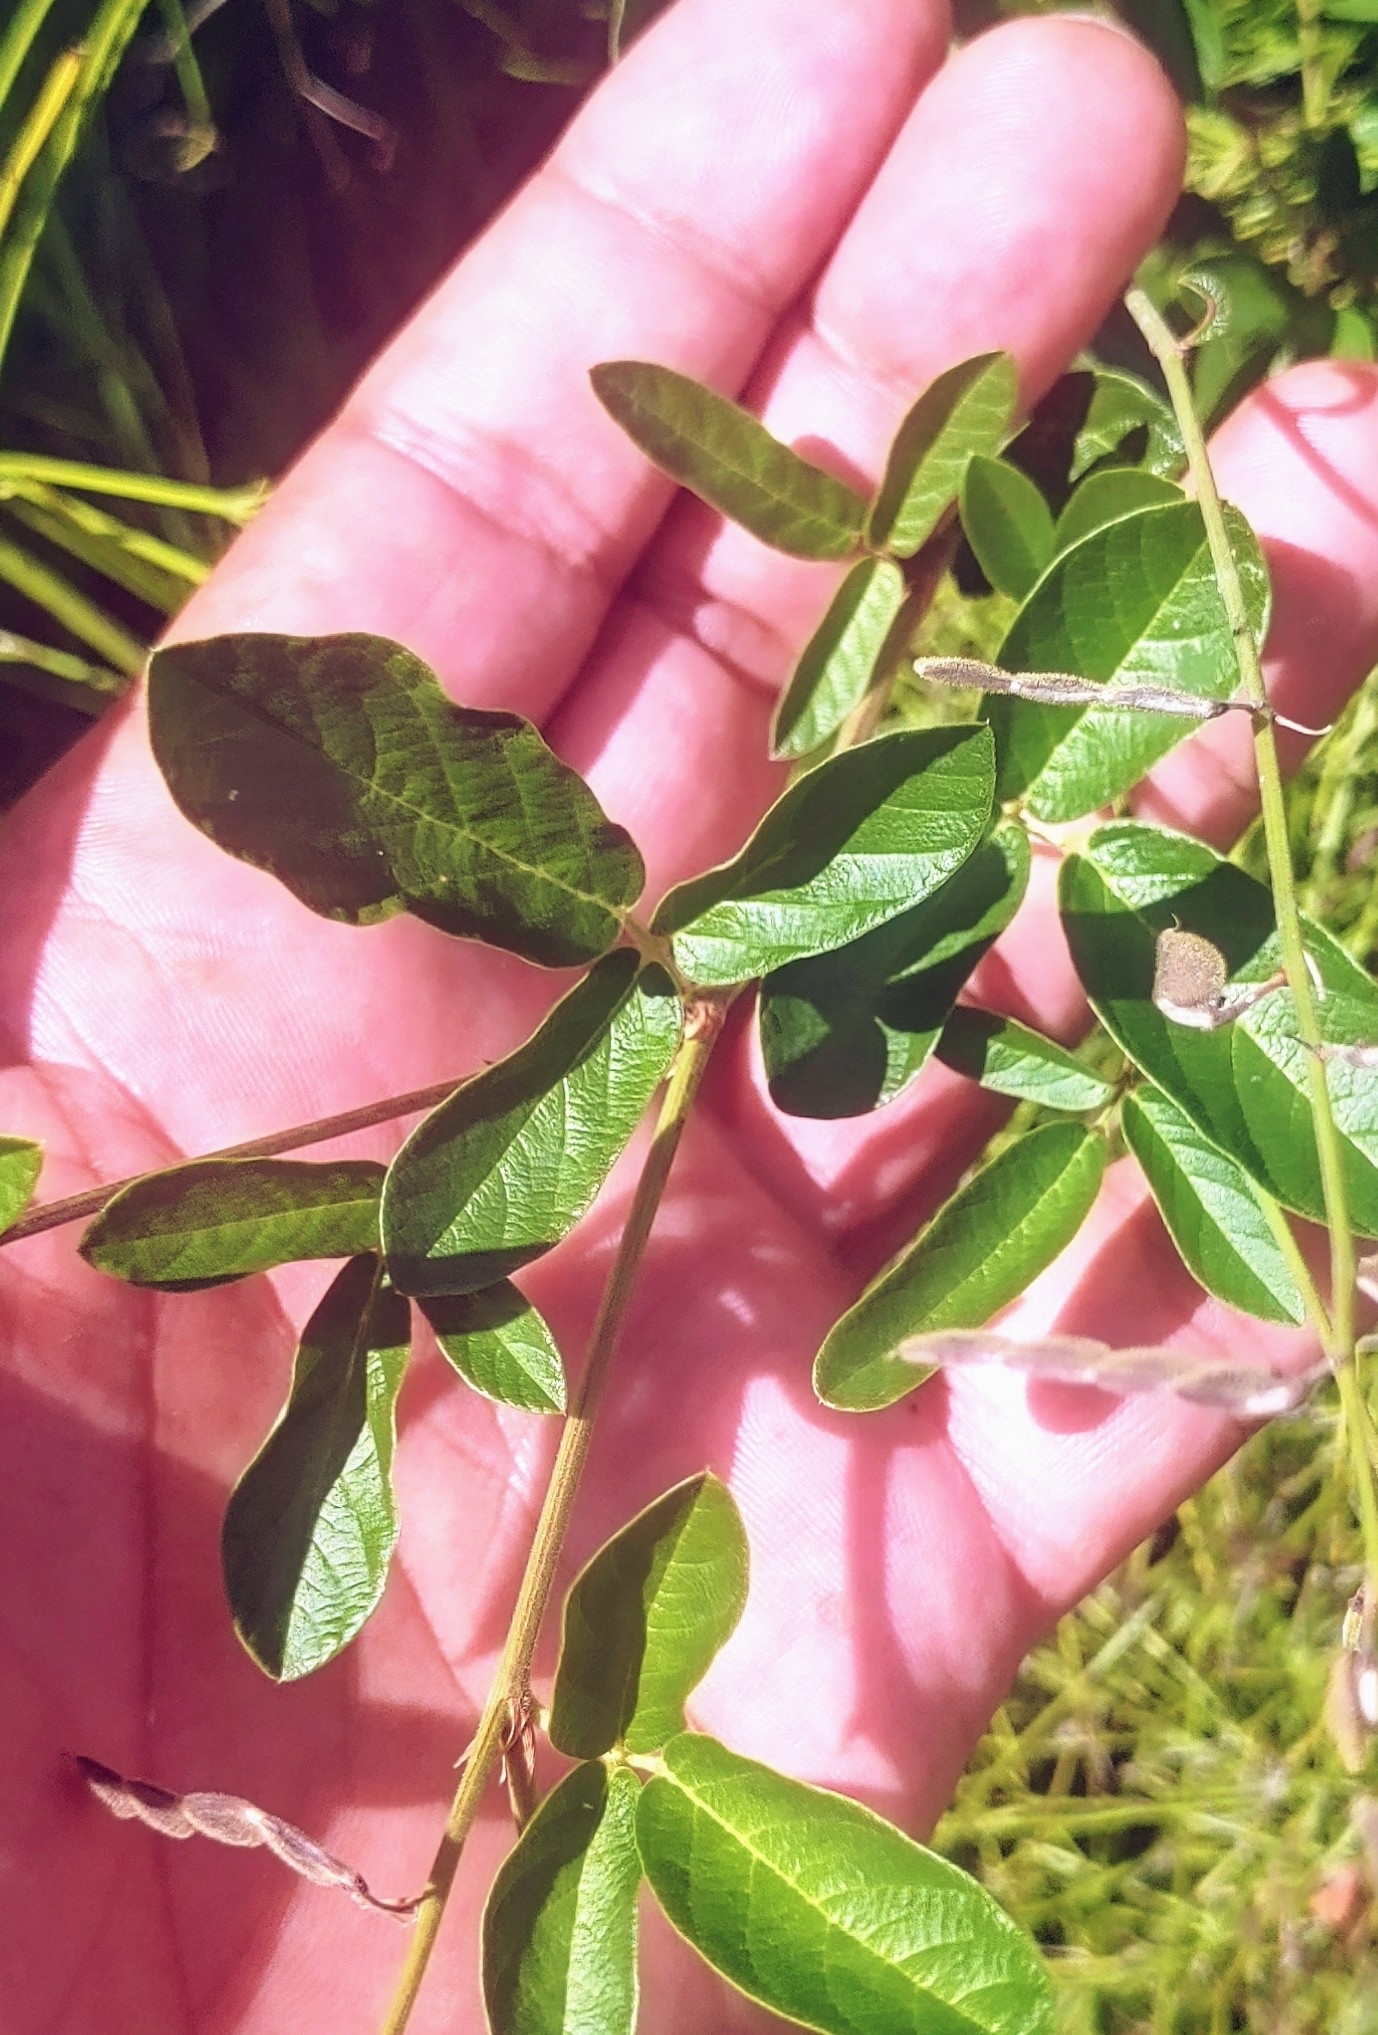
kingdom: Plantae
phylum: Tracheophyta
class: Magnoliopsida
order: Fabales
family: Fabaceae
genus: Desmodium
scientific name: Desmodium incanum
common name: Tickclover
